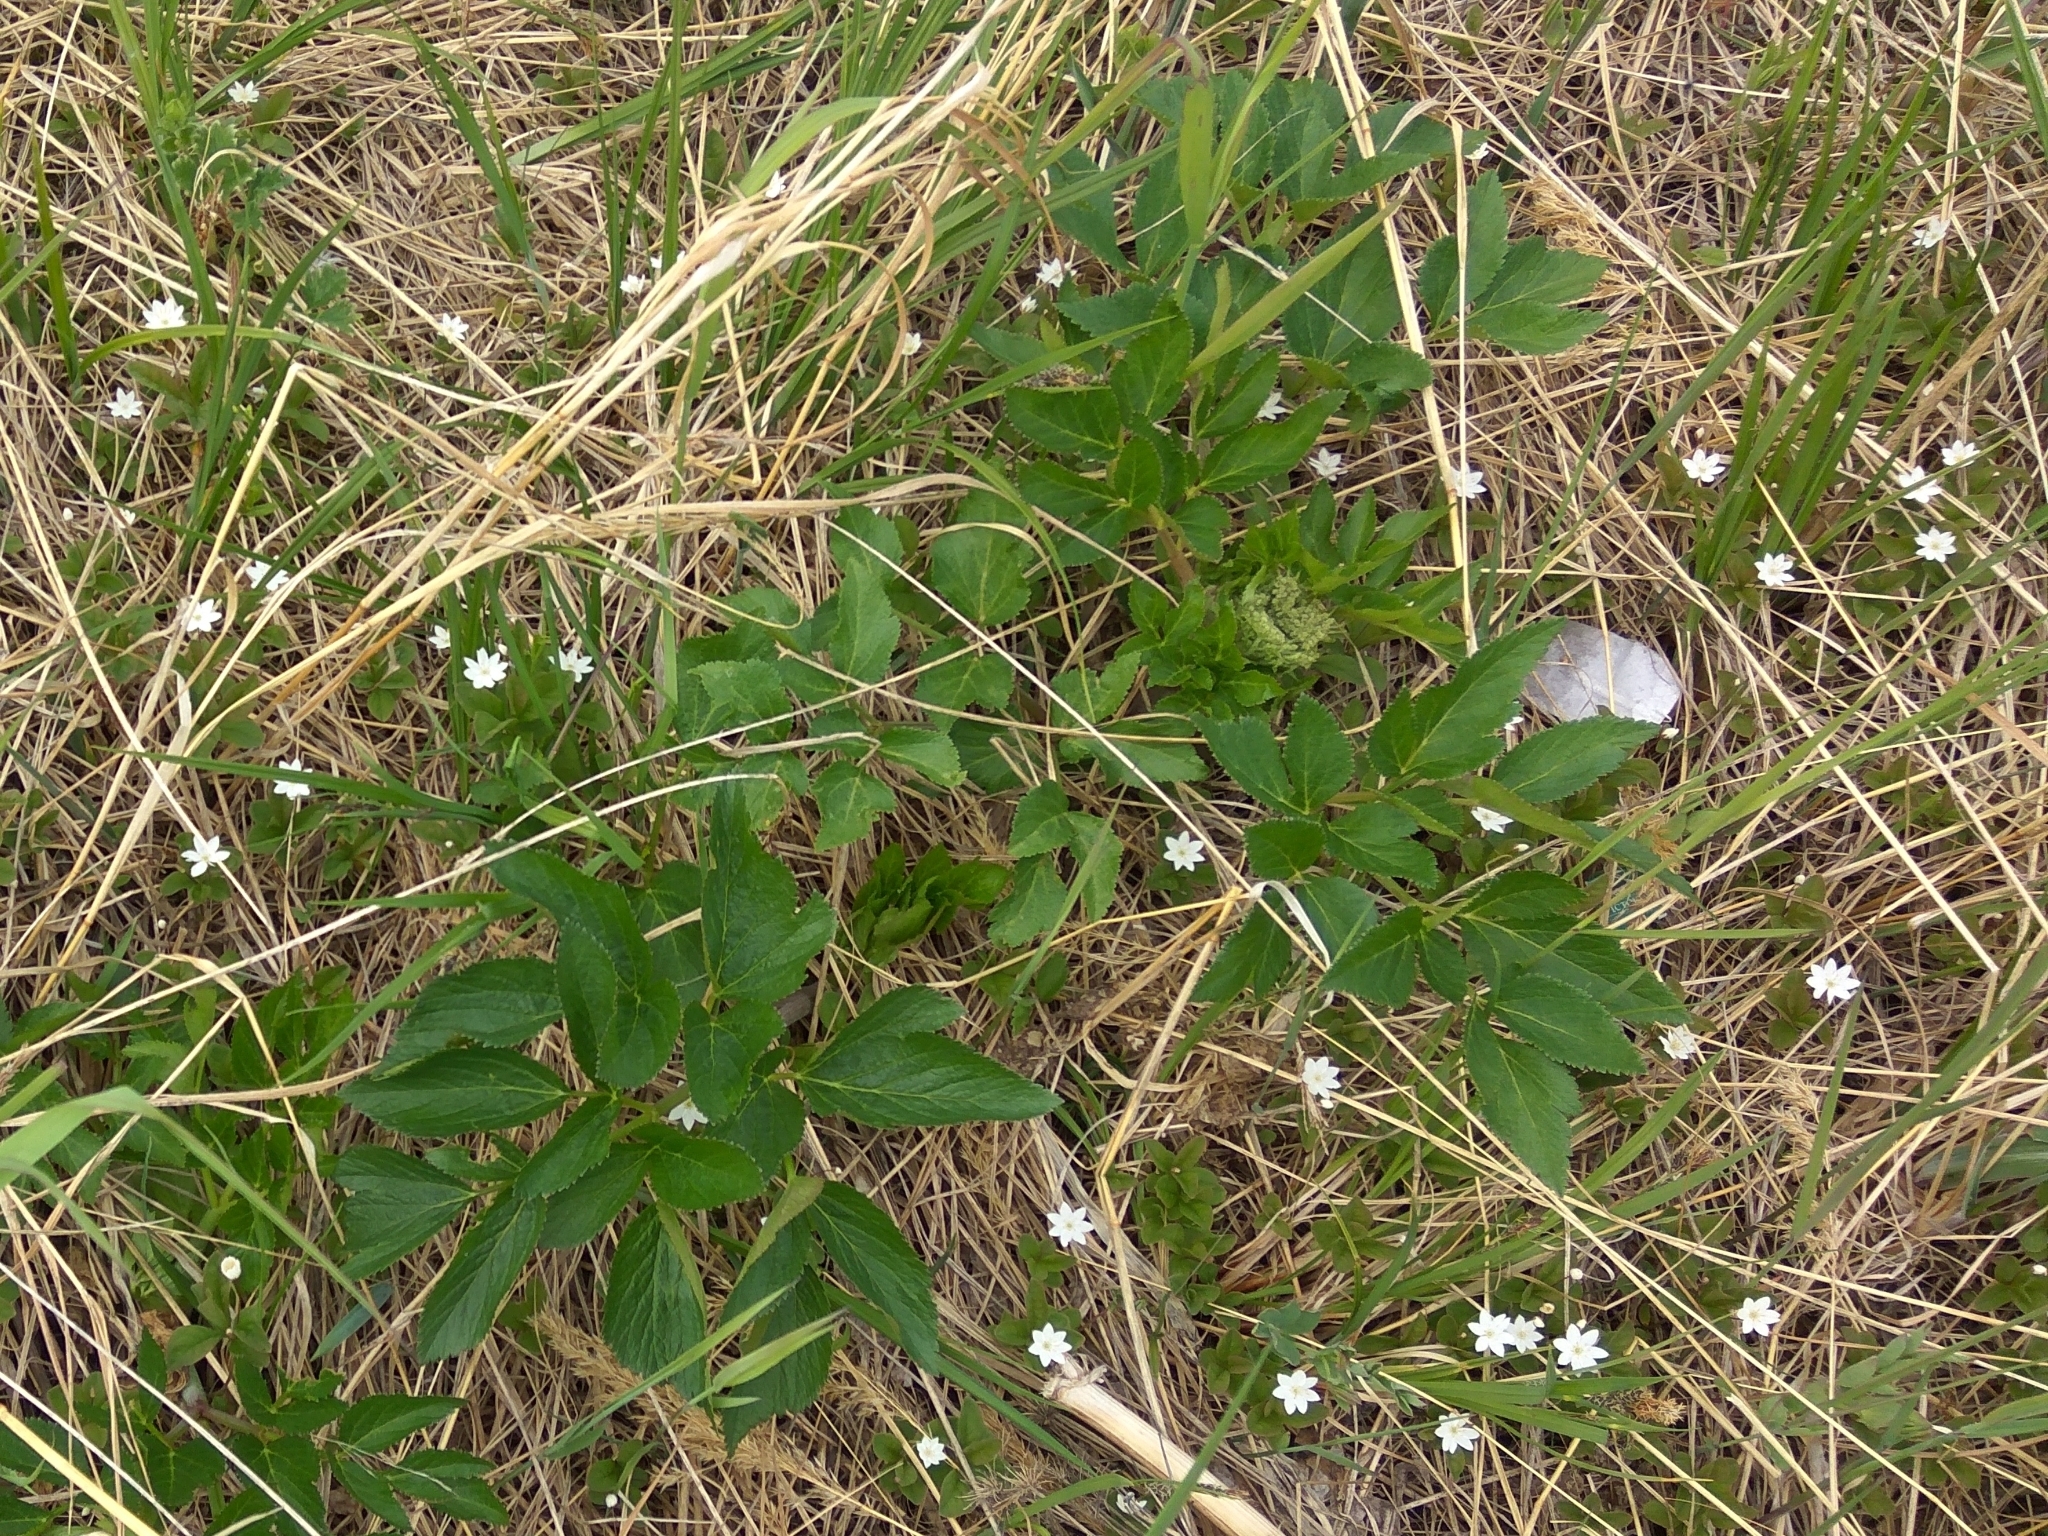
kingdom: Plantae
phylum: Tracheophyta
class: Magnoliopsida
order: Apiales
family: Apiaceae
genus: Angelica
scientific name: Angelica gmelinii
